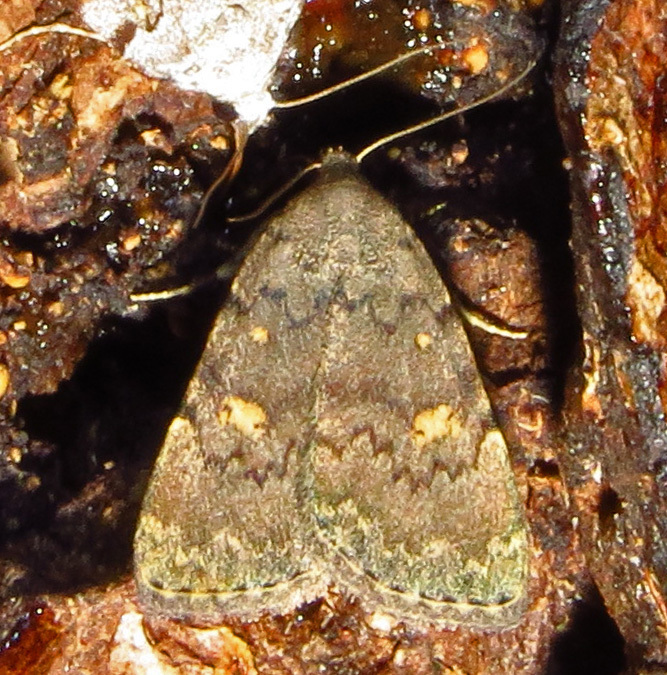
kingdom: Animalia
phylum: Arthropoda
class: Insecta
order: Lepidoptera
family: Erebidae
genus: Idia
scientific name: Idia aemula
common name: Common idia moth
